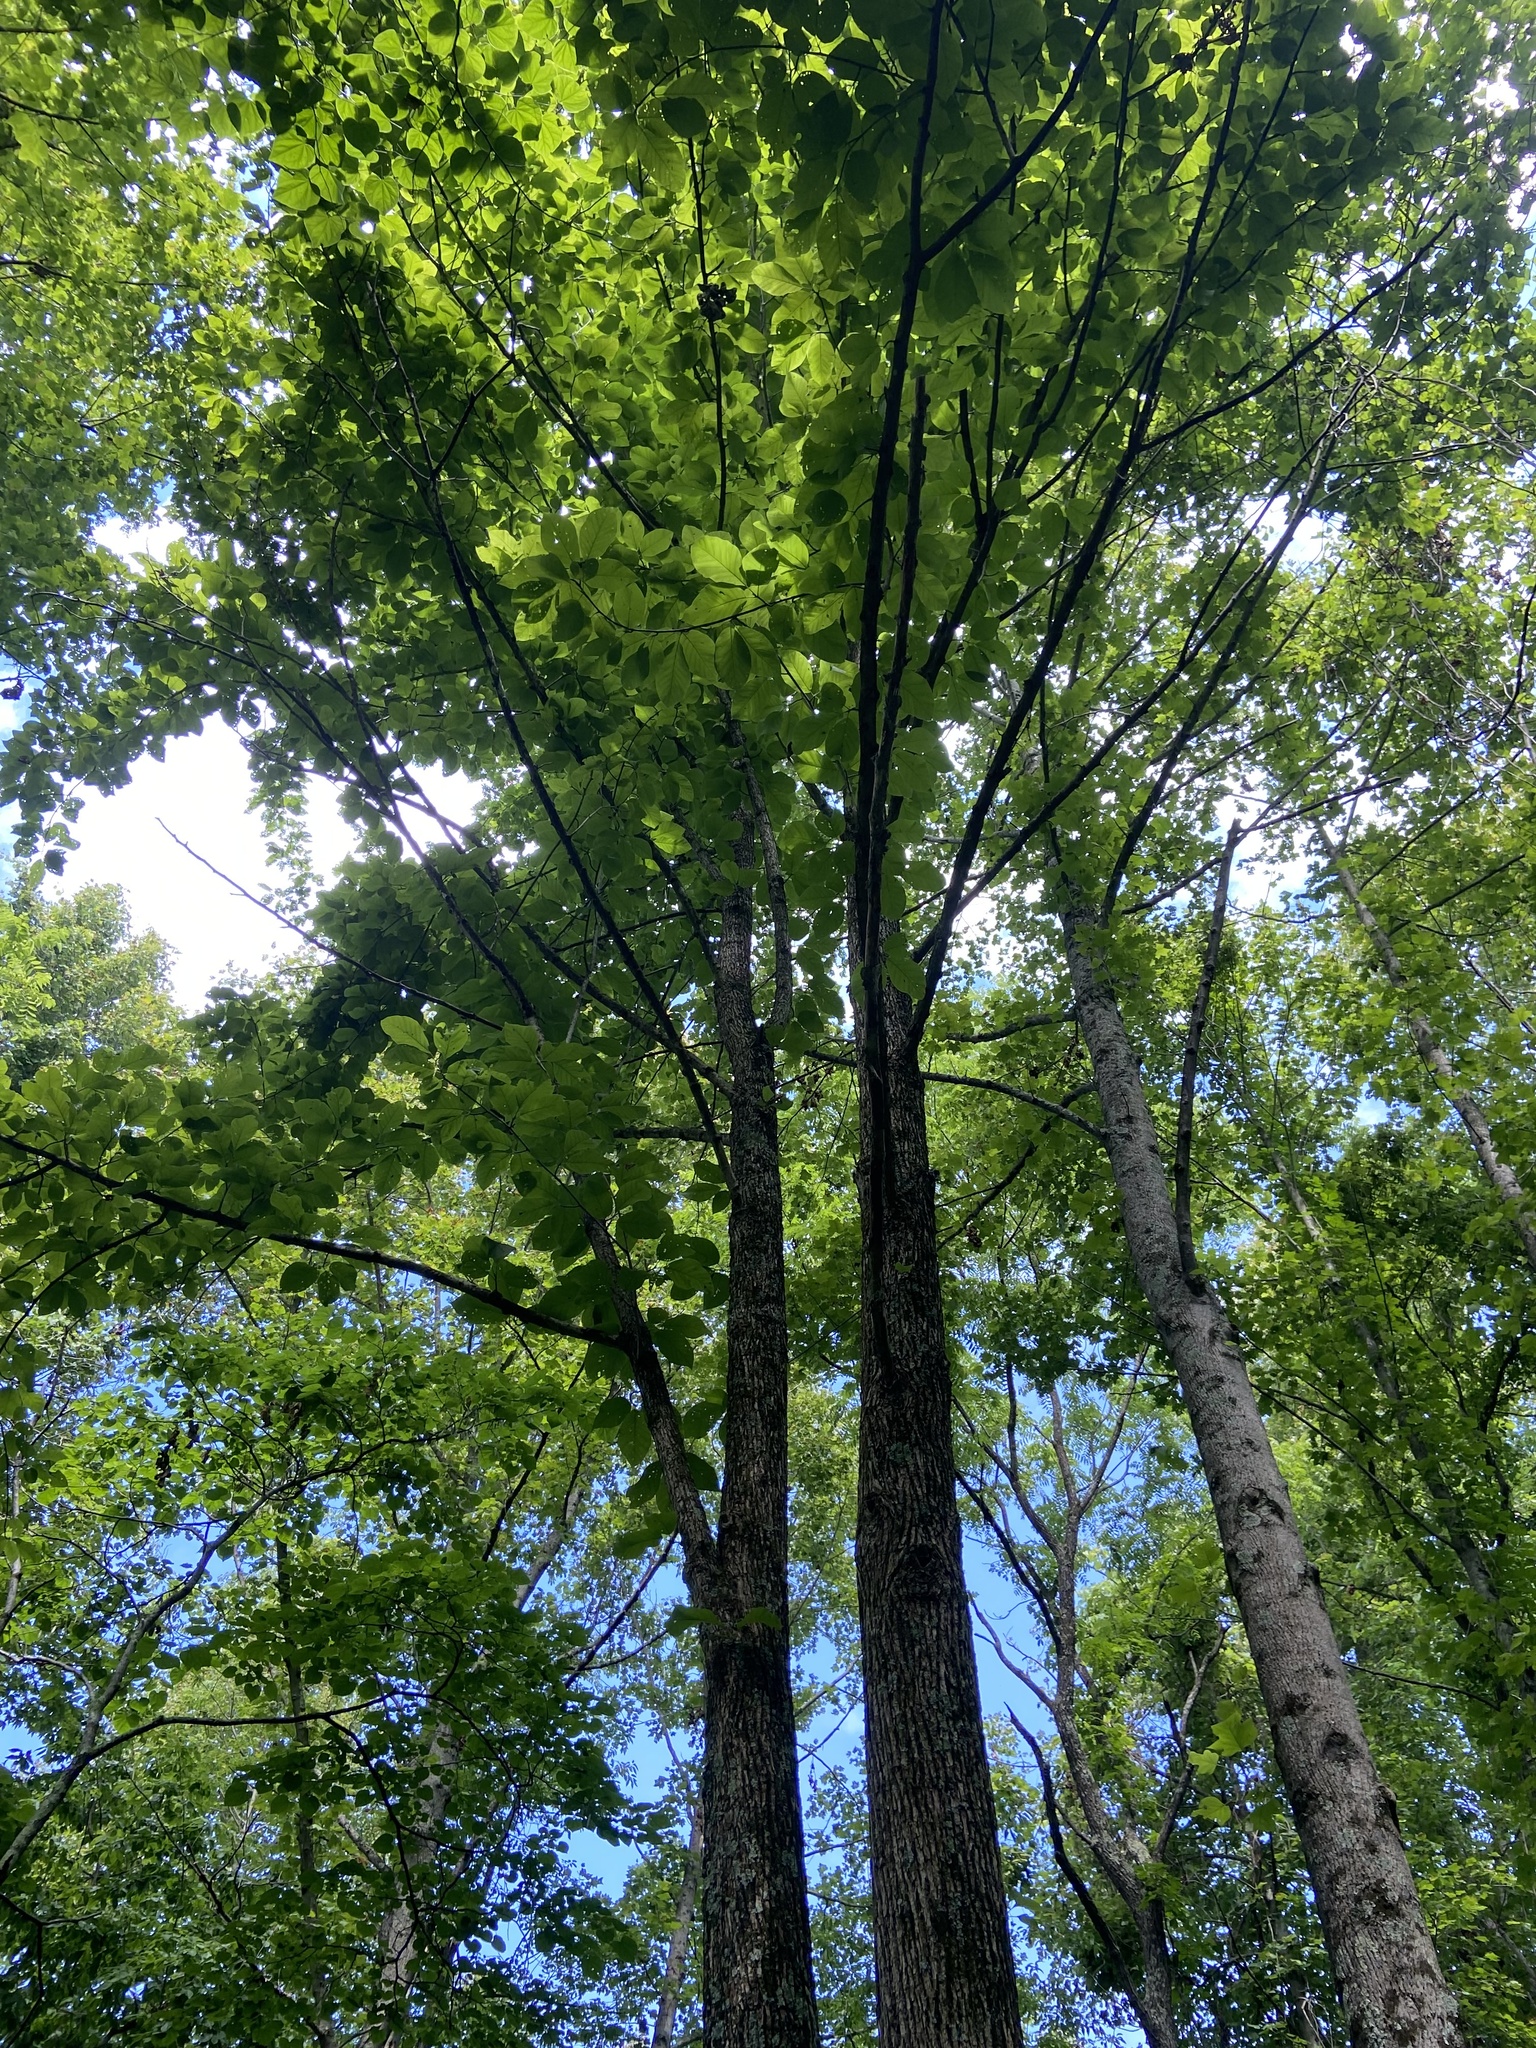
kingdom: Plantae
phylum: Tracheophyta
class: Magnoliopsida
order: Magnoliales
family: Magnoliaceae
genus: Magnolia
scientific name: Magnolia acuminata
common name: Cucumber magnolia
